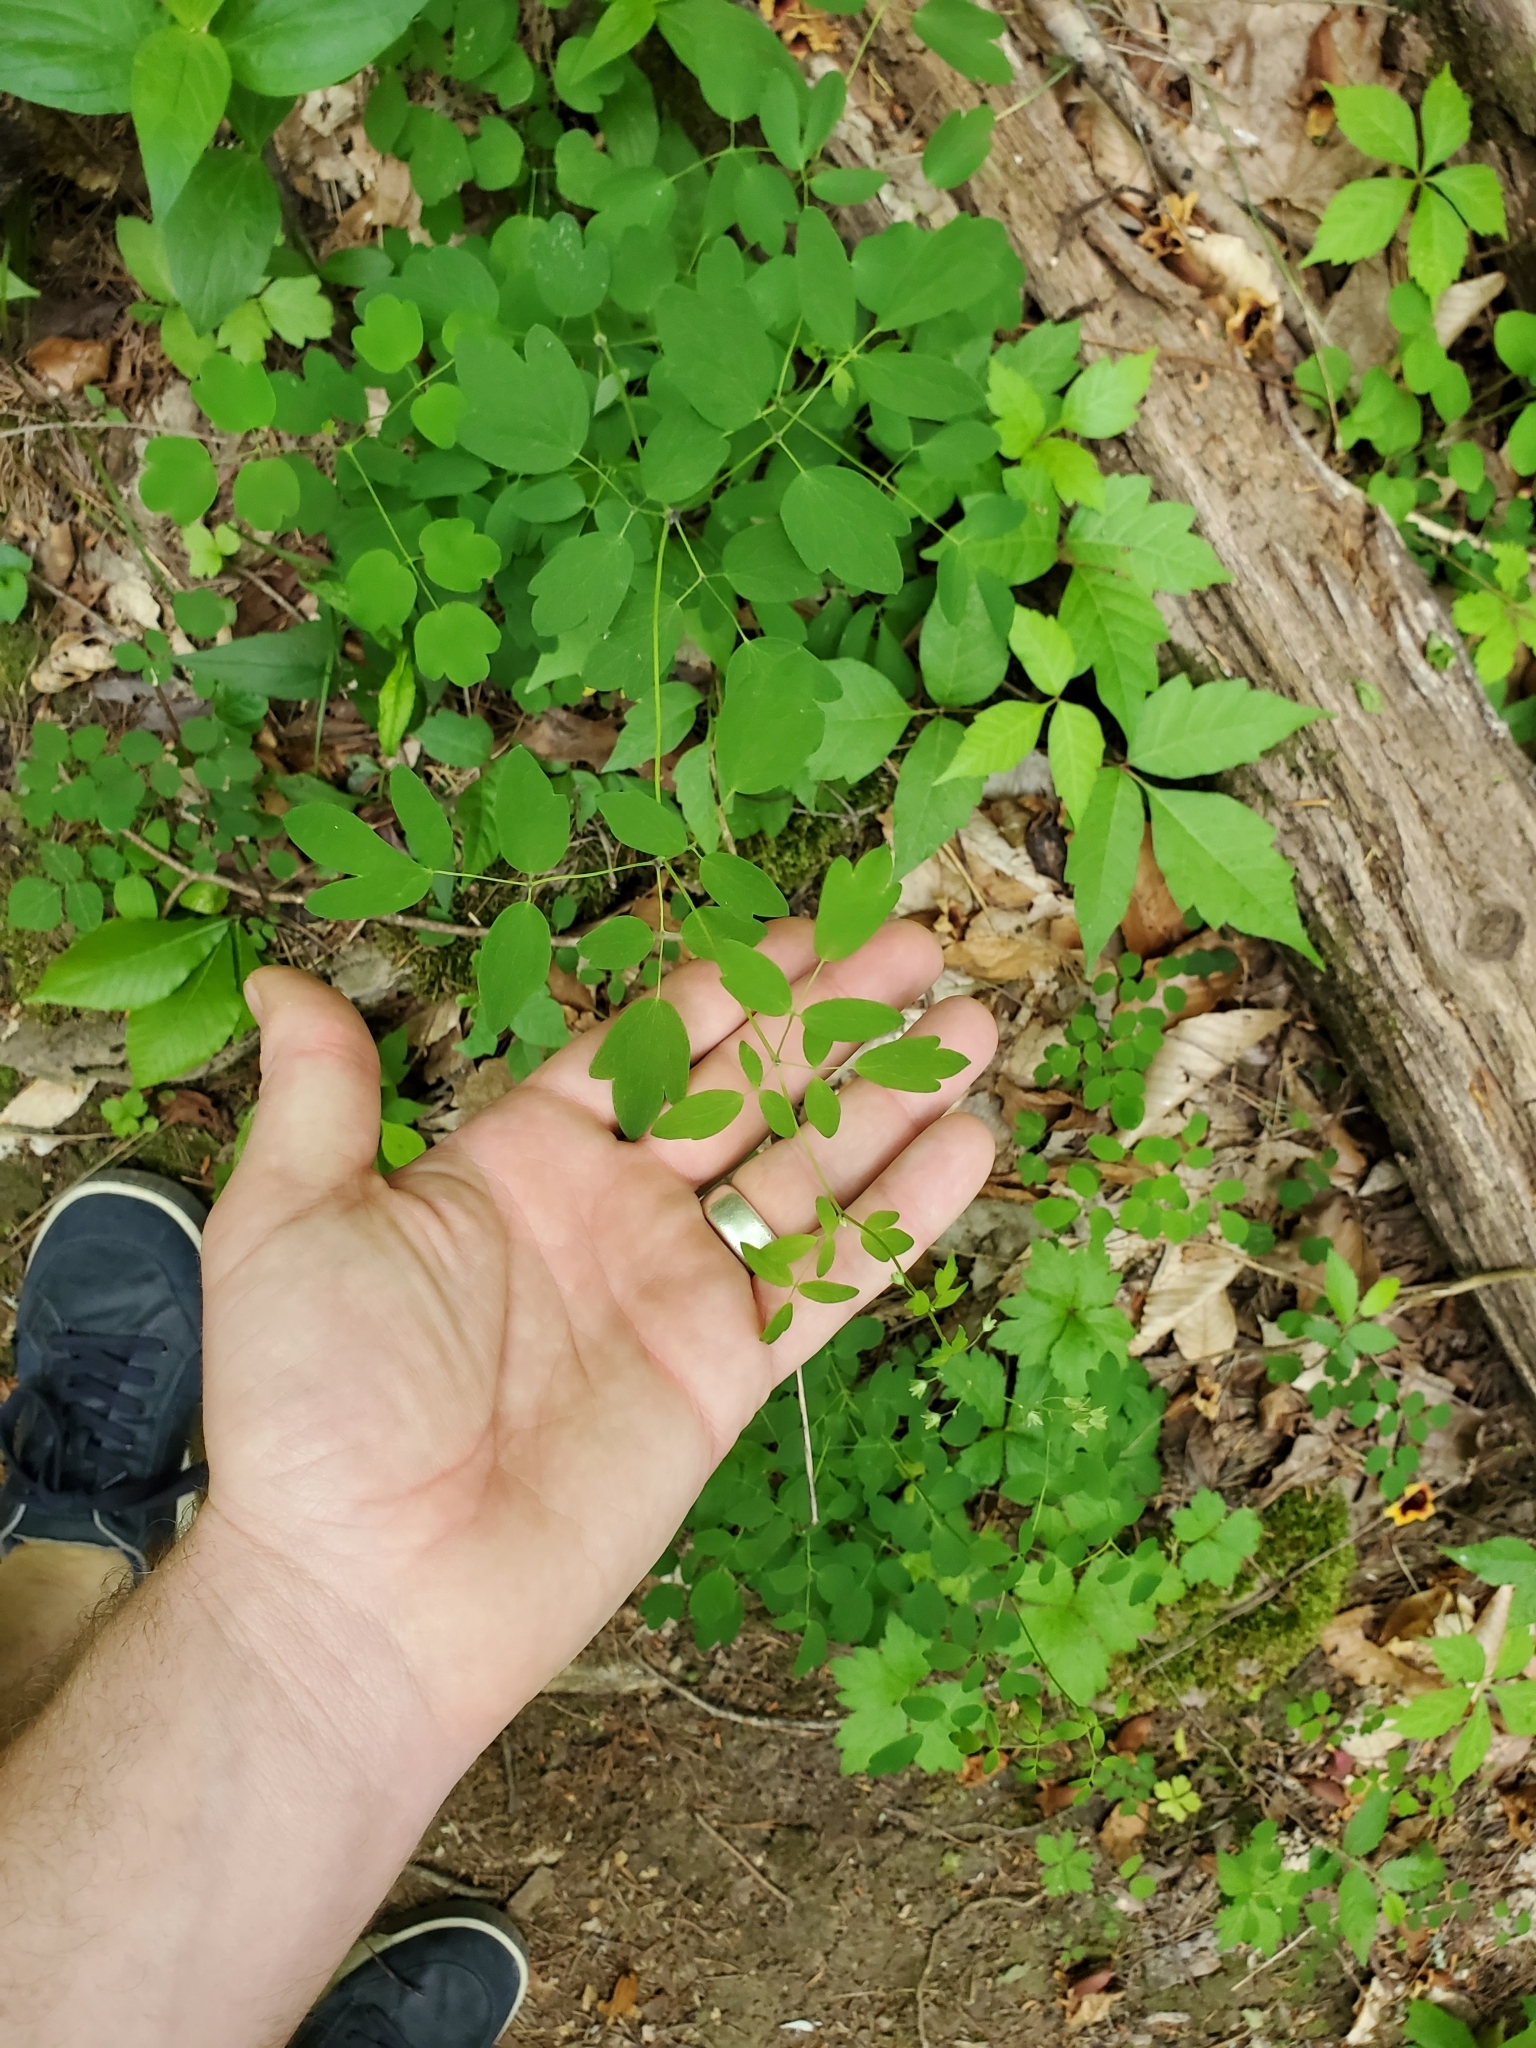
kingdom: Plantae
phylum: Tracheophyta
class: Magnoliopsida
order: Ranunculales
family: Ranunculaceae
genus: Thalictrum
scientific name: Thalictrum dioicum
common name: Early meadow-rue
